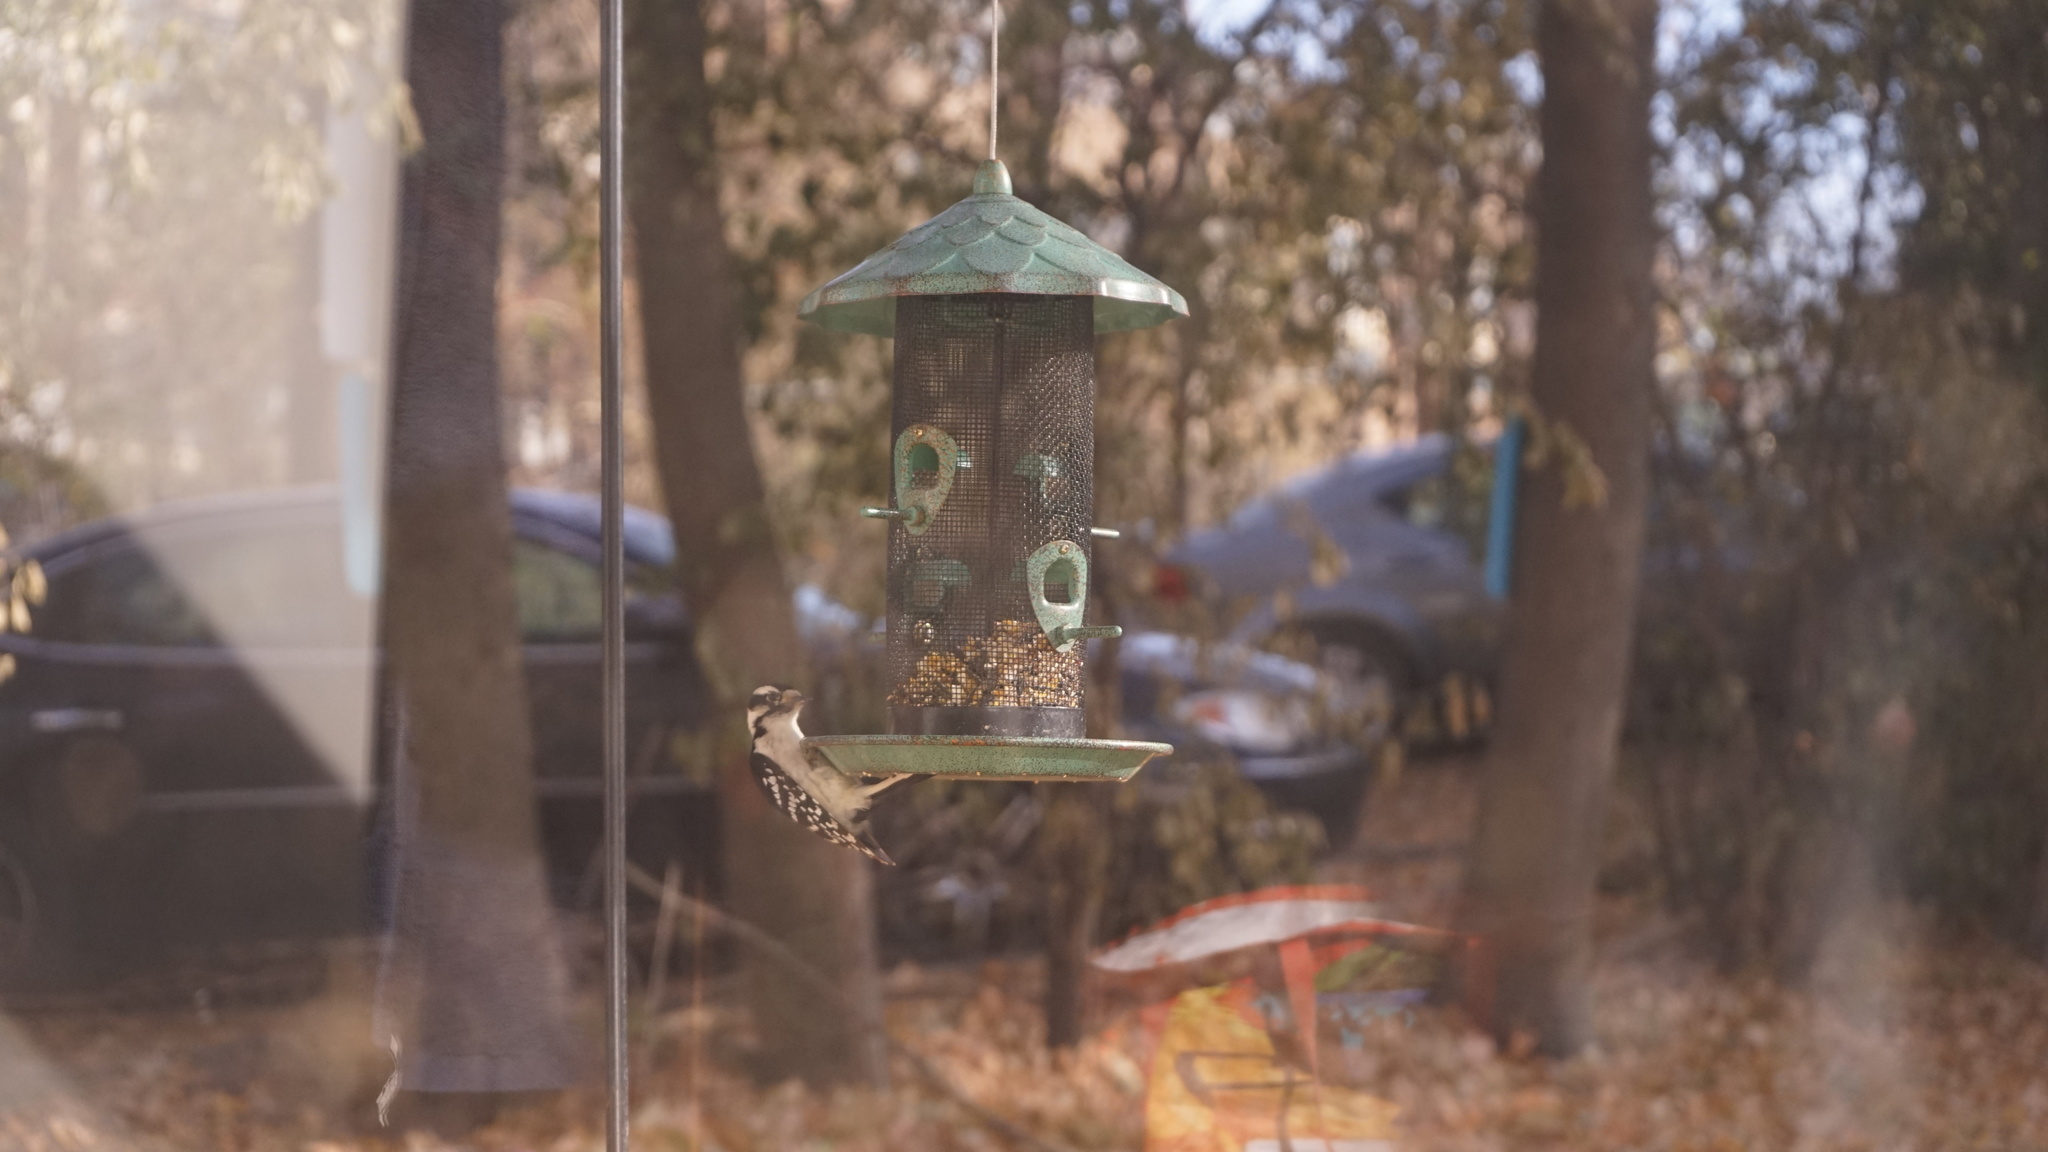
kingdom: Animalia
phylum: Chordata
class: Aves
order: Piciformes
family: Picidae
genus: Dryobates
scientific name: Dryobates pubescens
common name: Downy woodpecker
